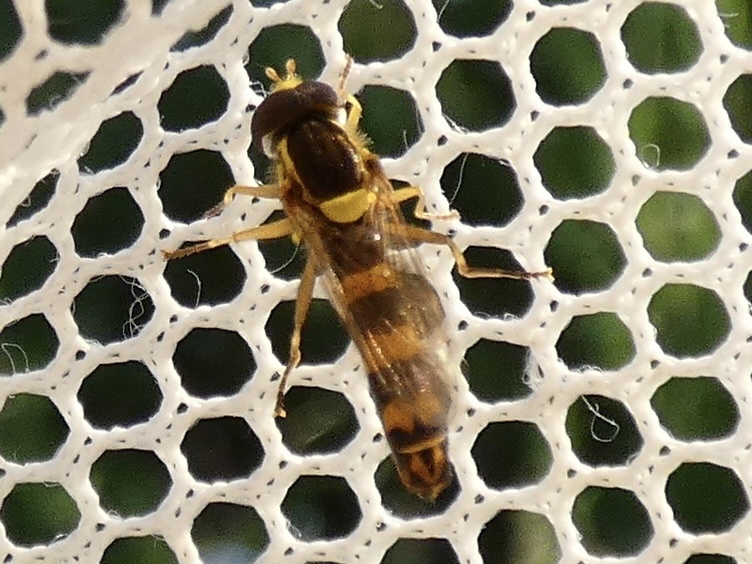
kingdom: Animalia
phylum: Arthropoda
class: Insecta
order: Diptera
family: Syrphidae
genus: Sphaerophoria
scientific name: Sphaerophoria scripta
